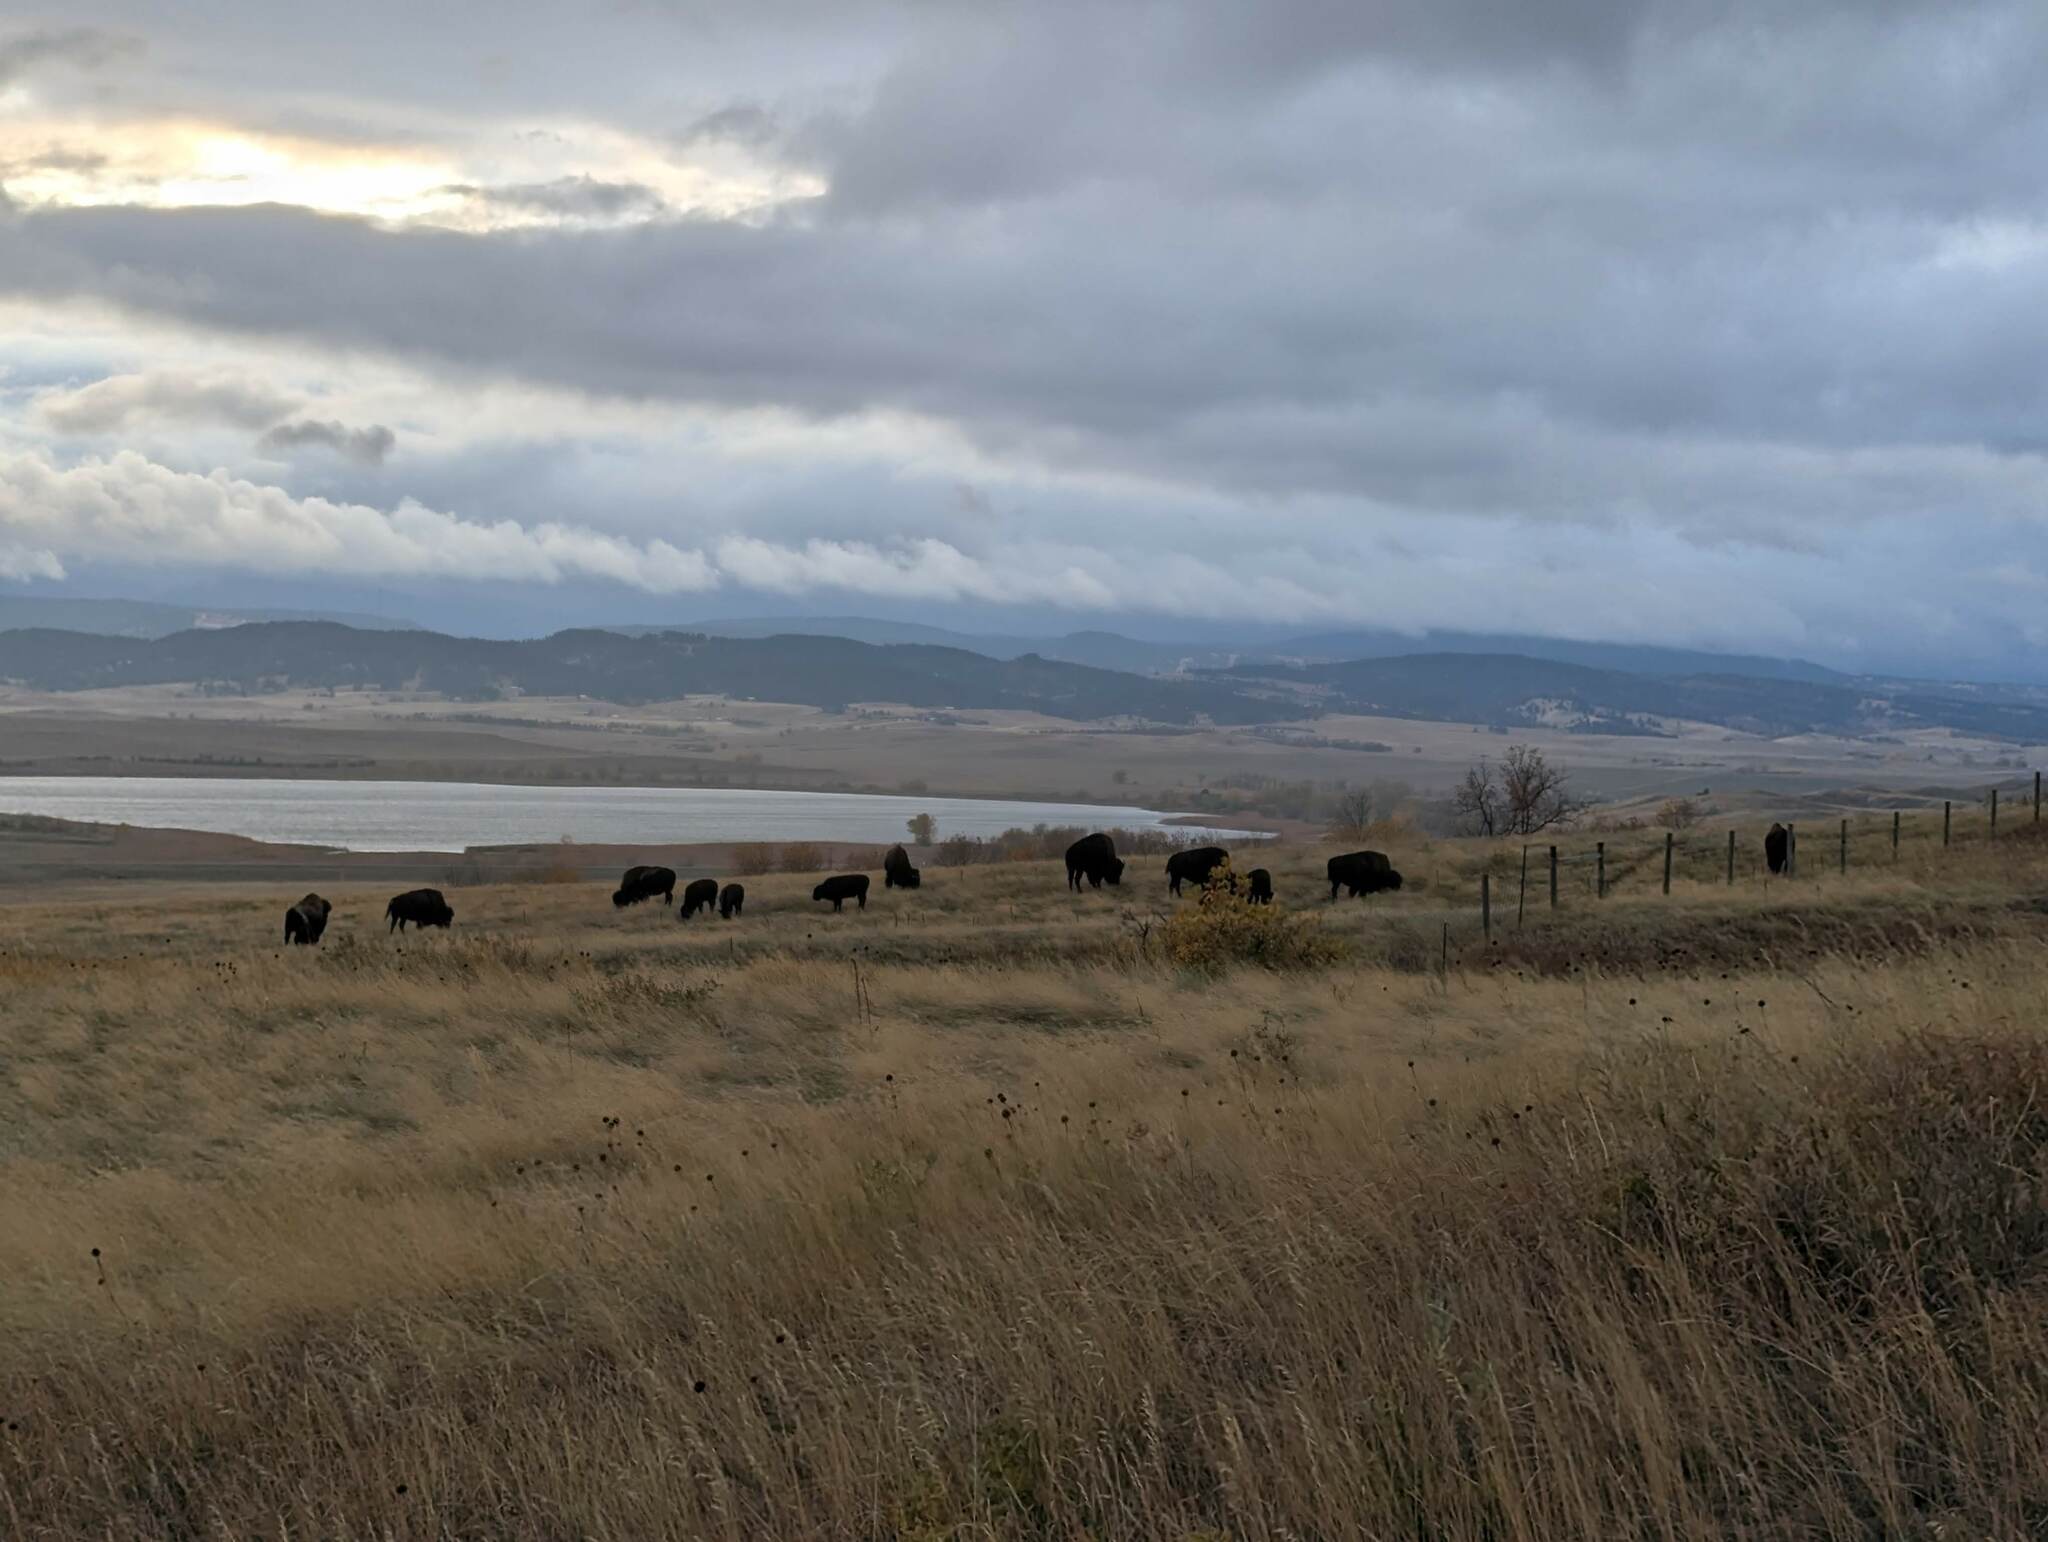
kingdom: Animalia
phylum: Chordata
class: Mammalia
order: Artiodactyla
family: Bovidae
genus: Bison
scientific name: Bison bison
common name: American bison
